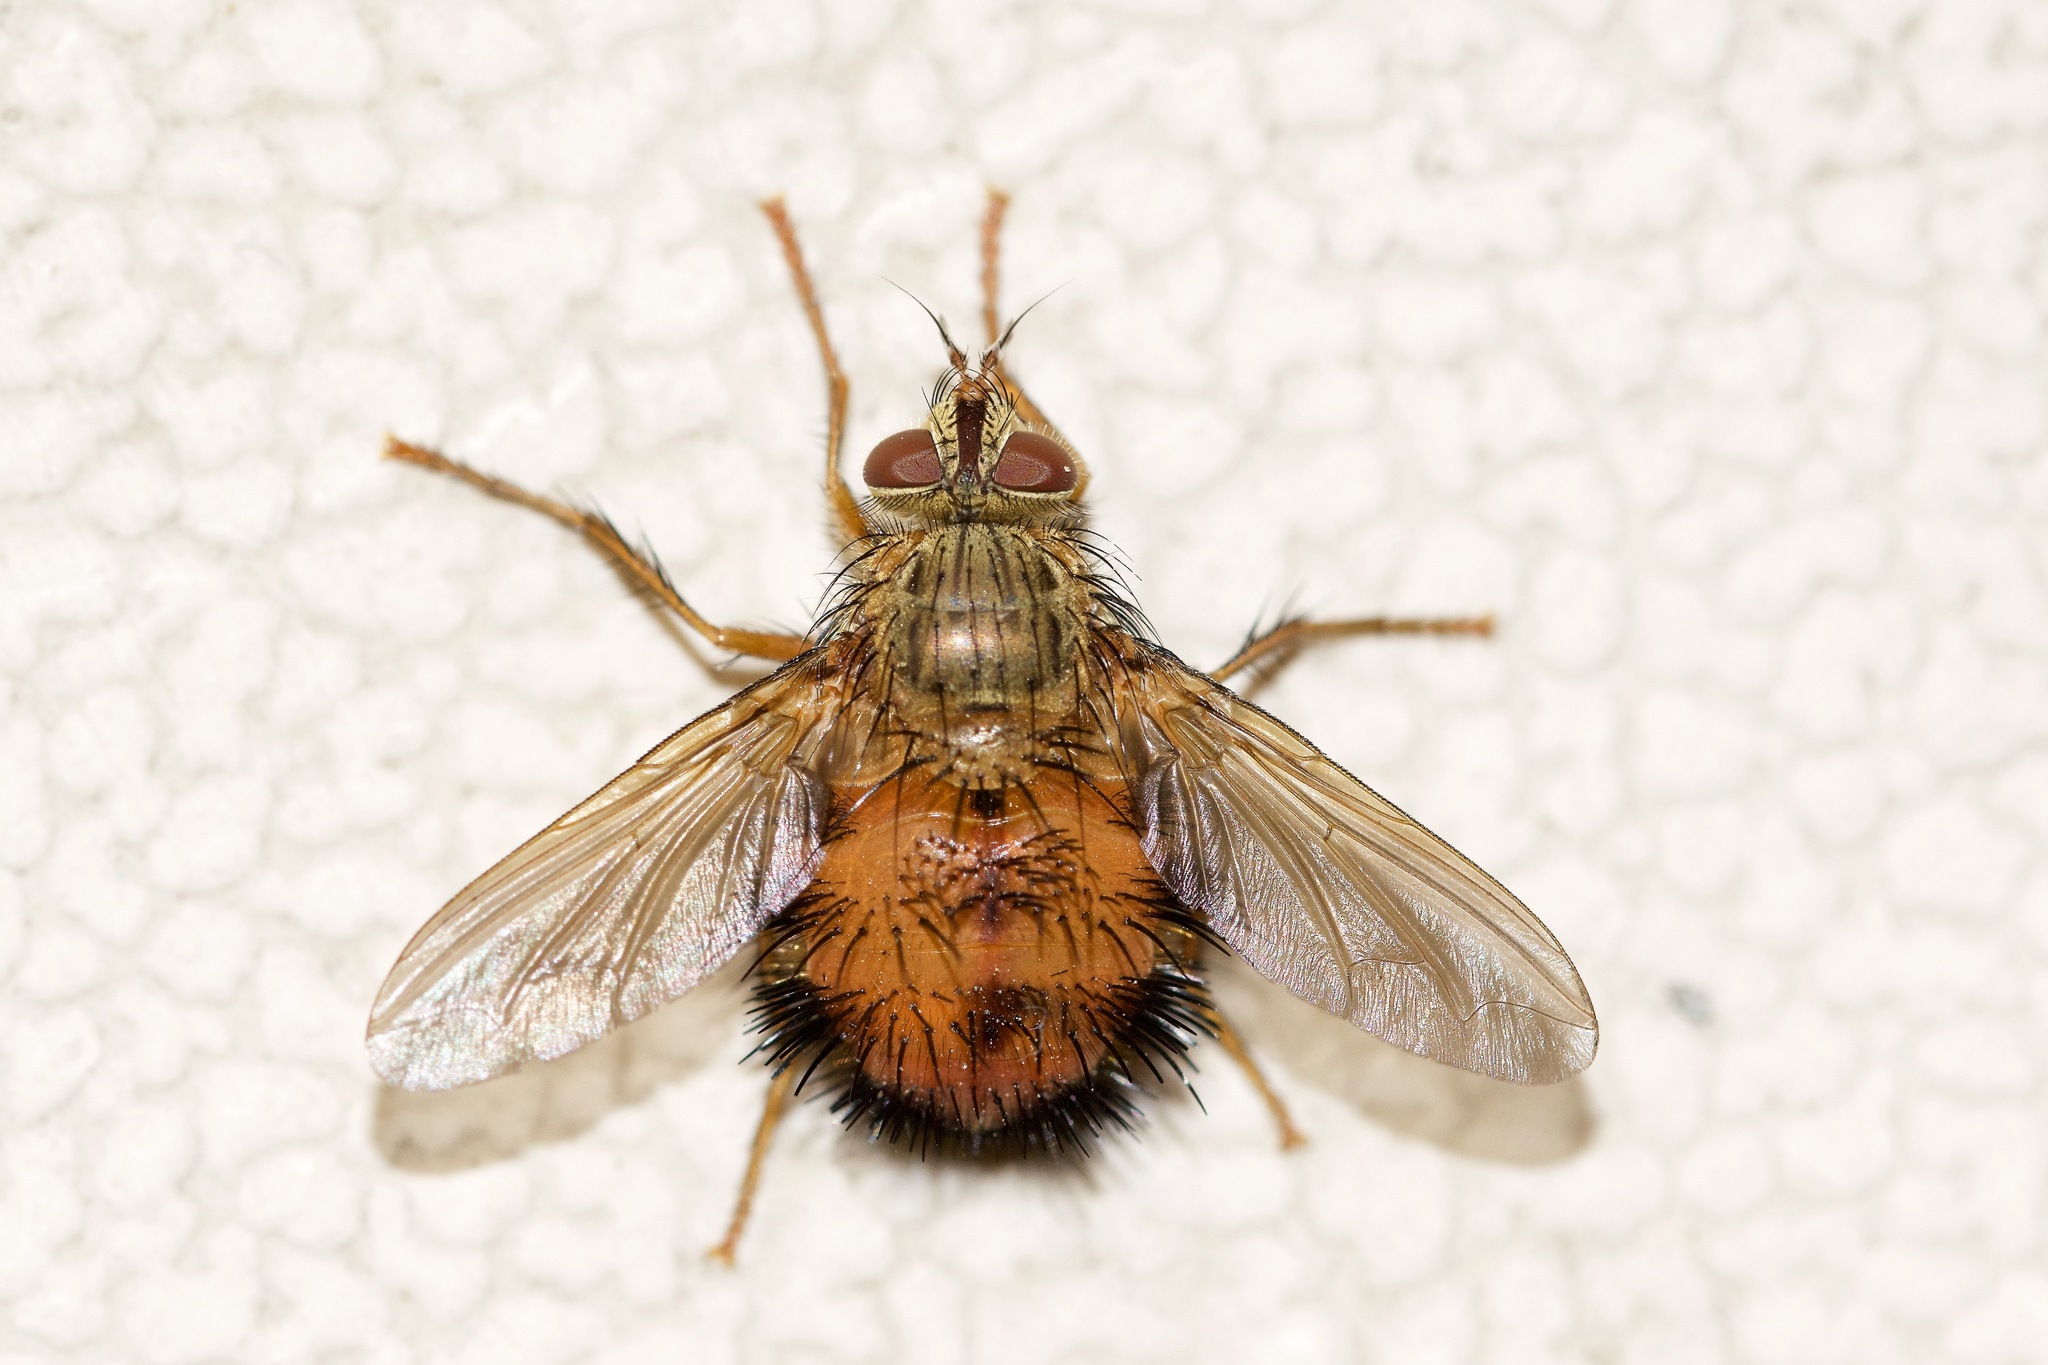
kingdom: Animalia
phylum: Arthropoda
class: Insecta
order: Diptera
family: Tachinidae
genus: Hystricia
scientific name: Hystricia abrupta
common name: Tomato bristle fly
